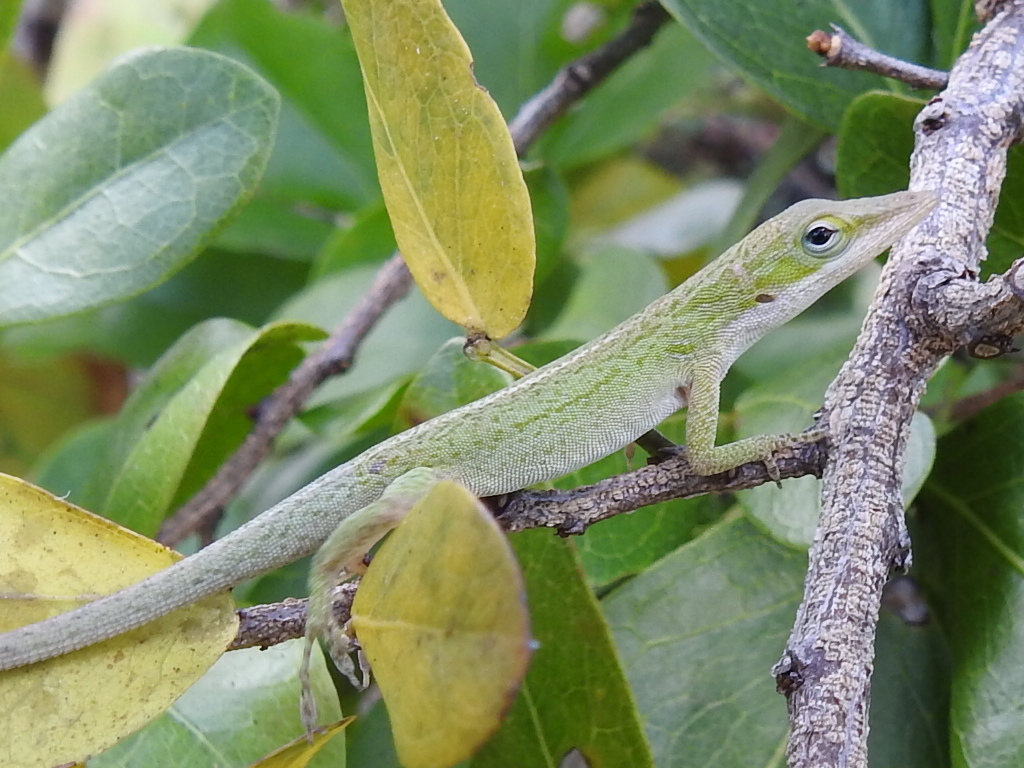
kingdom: Animalia
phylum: Chordata
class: Squamata
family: Dactyloidae
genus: Anolis
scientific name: Anolis carolinensis
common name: Green anole
